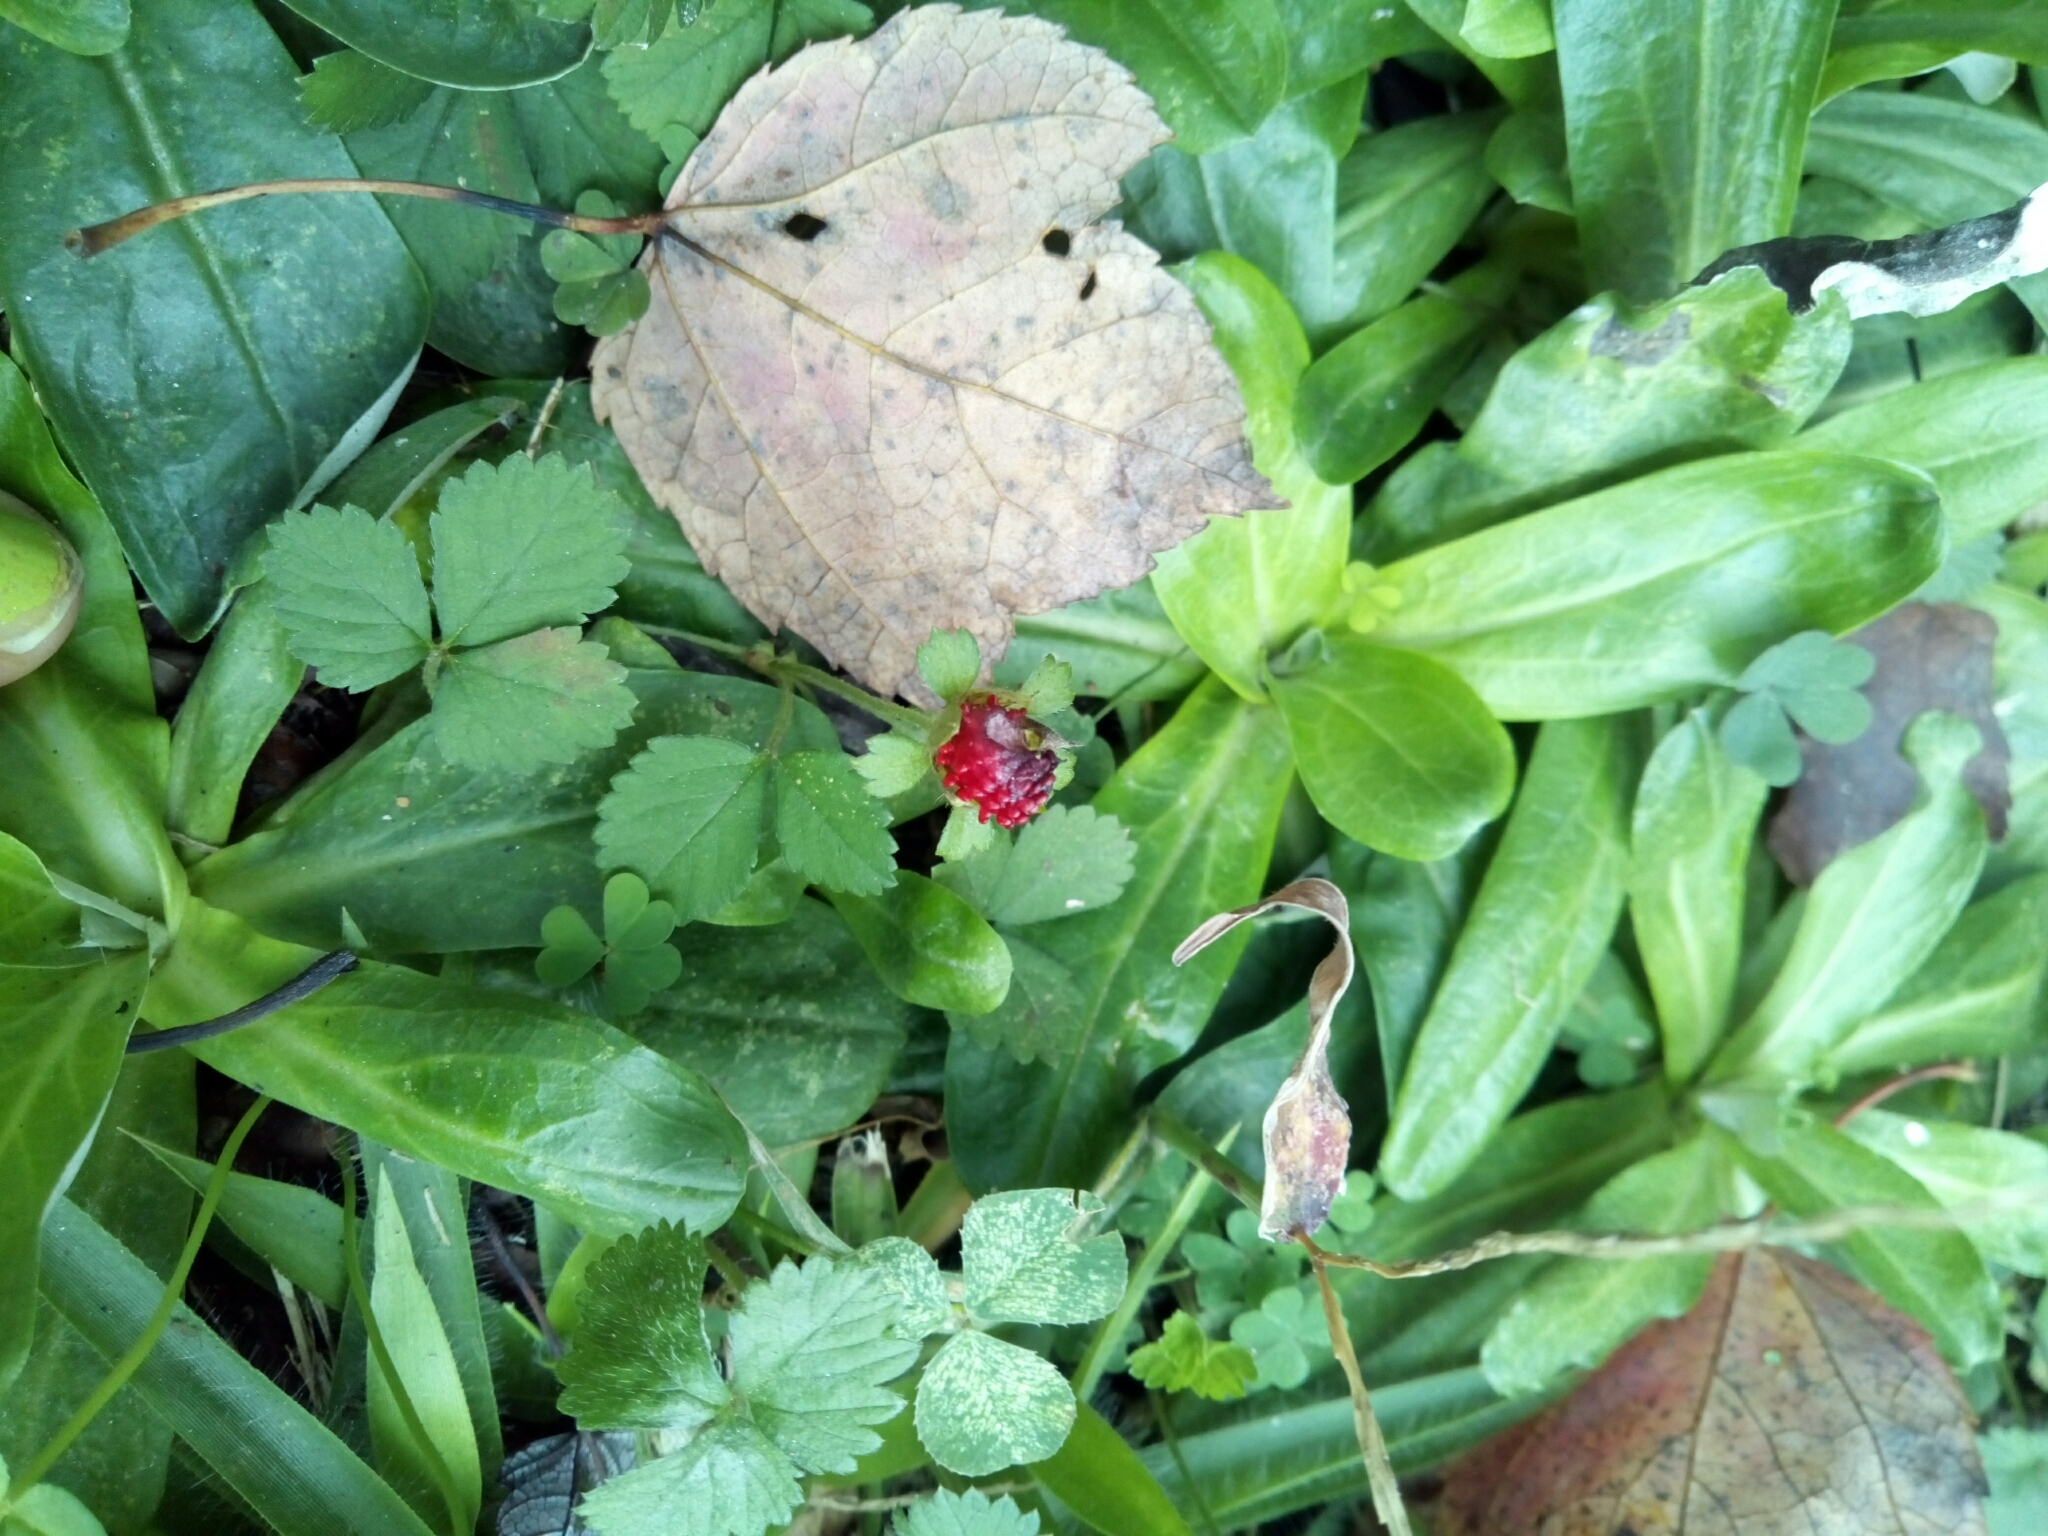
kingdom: Plantae
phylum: Tracheophyta
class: Magnoliopsida
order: Rosales
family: Rosaceae
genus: Potentilla
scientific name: Potentilla indica
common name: Yellow-flowered strawberry
